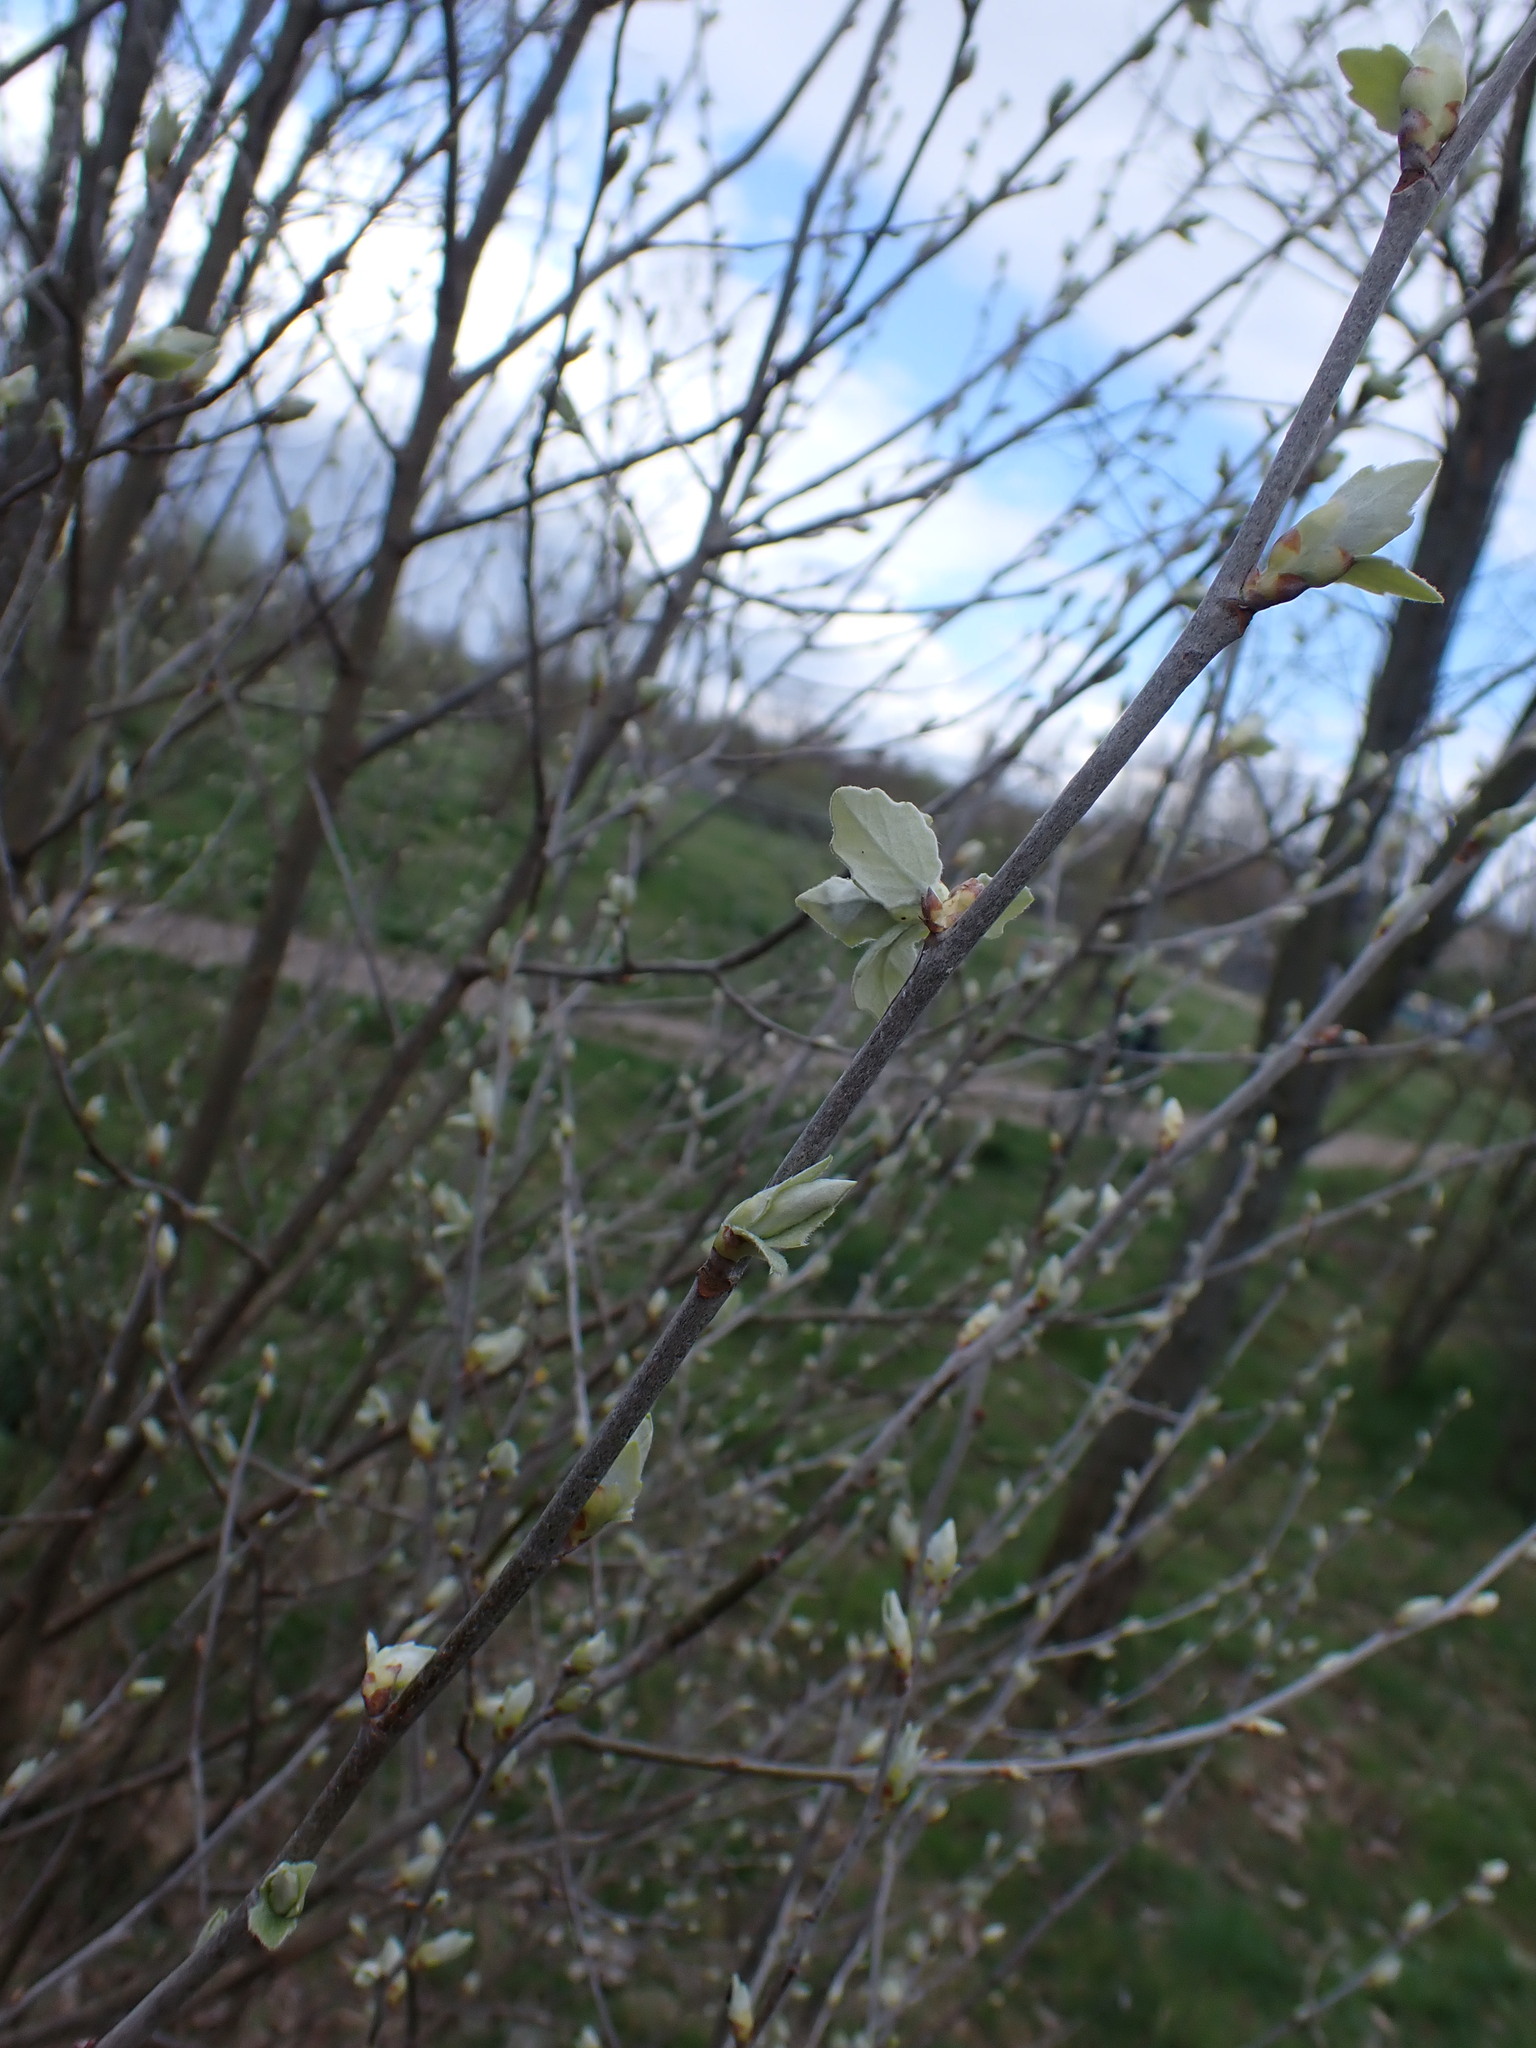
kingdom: Plantae
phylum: Tracheophyta
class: Magnoliopsida
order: Malpighiales
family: Salicaceae
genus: Populus
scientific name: Populus alba
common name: White poplar
